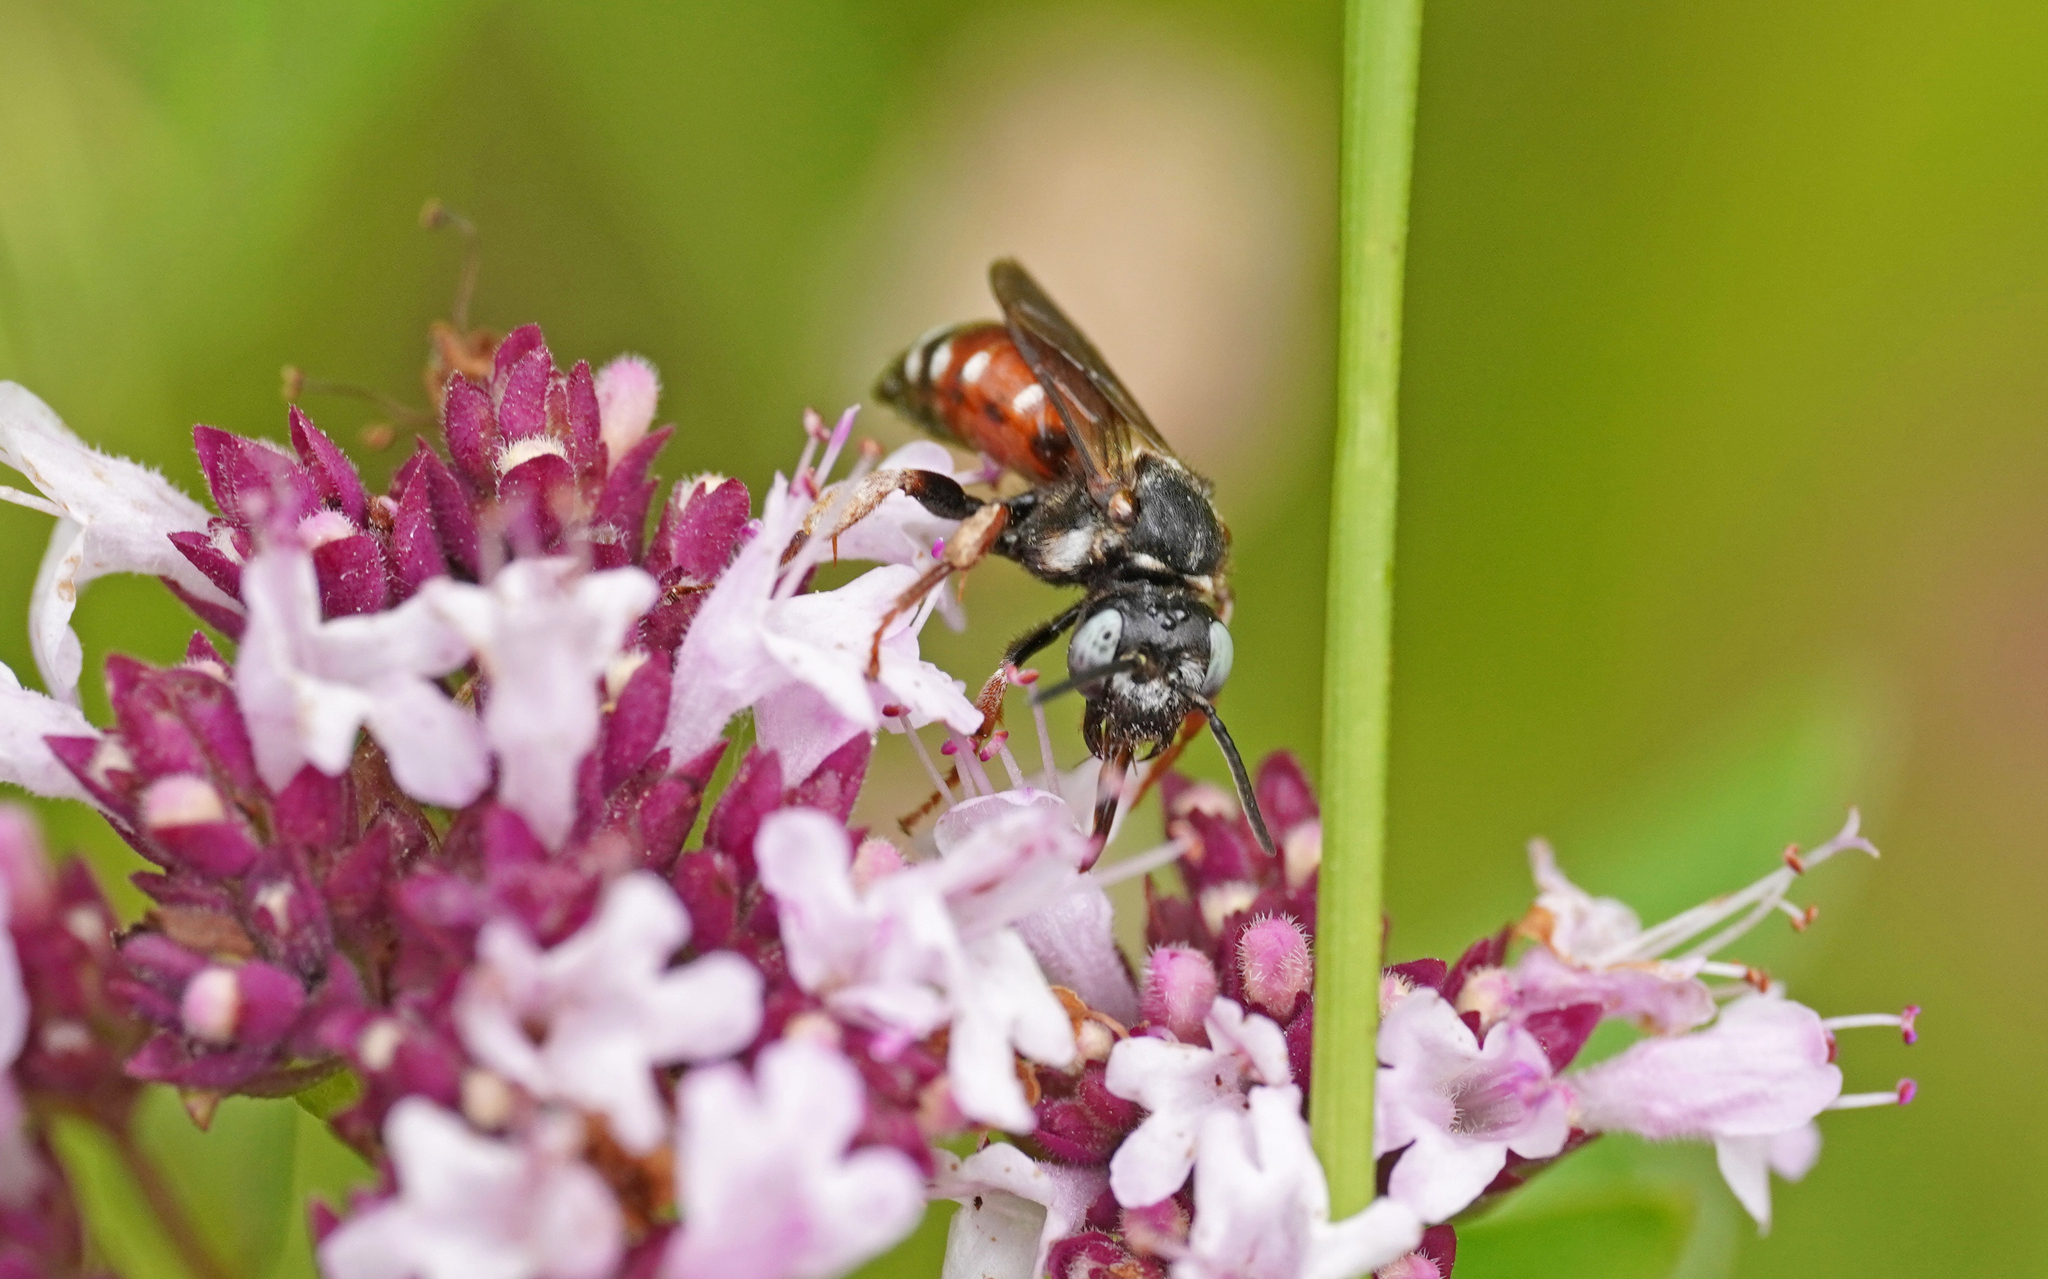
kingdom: Animalia
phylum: Arthropoda
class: Insecta
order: Hymenoptera
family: Apidae
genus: Epeoloides
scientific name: Epeoloides coecutiens
